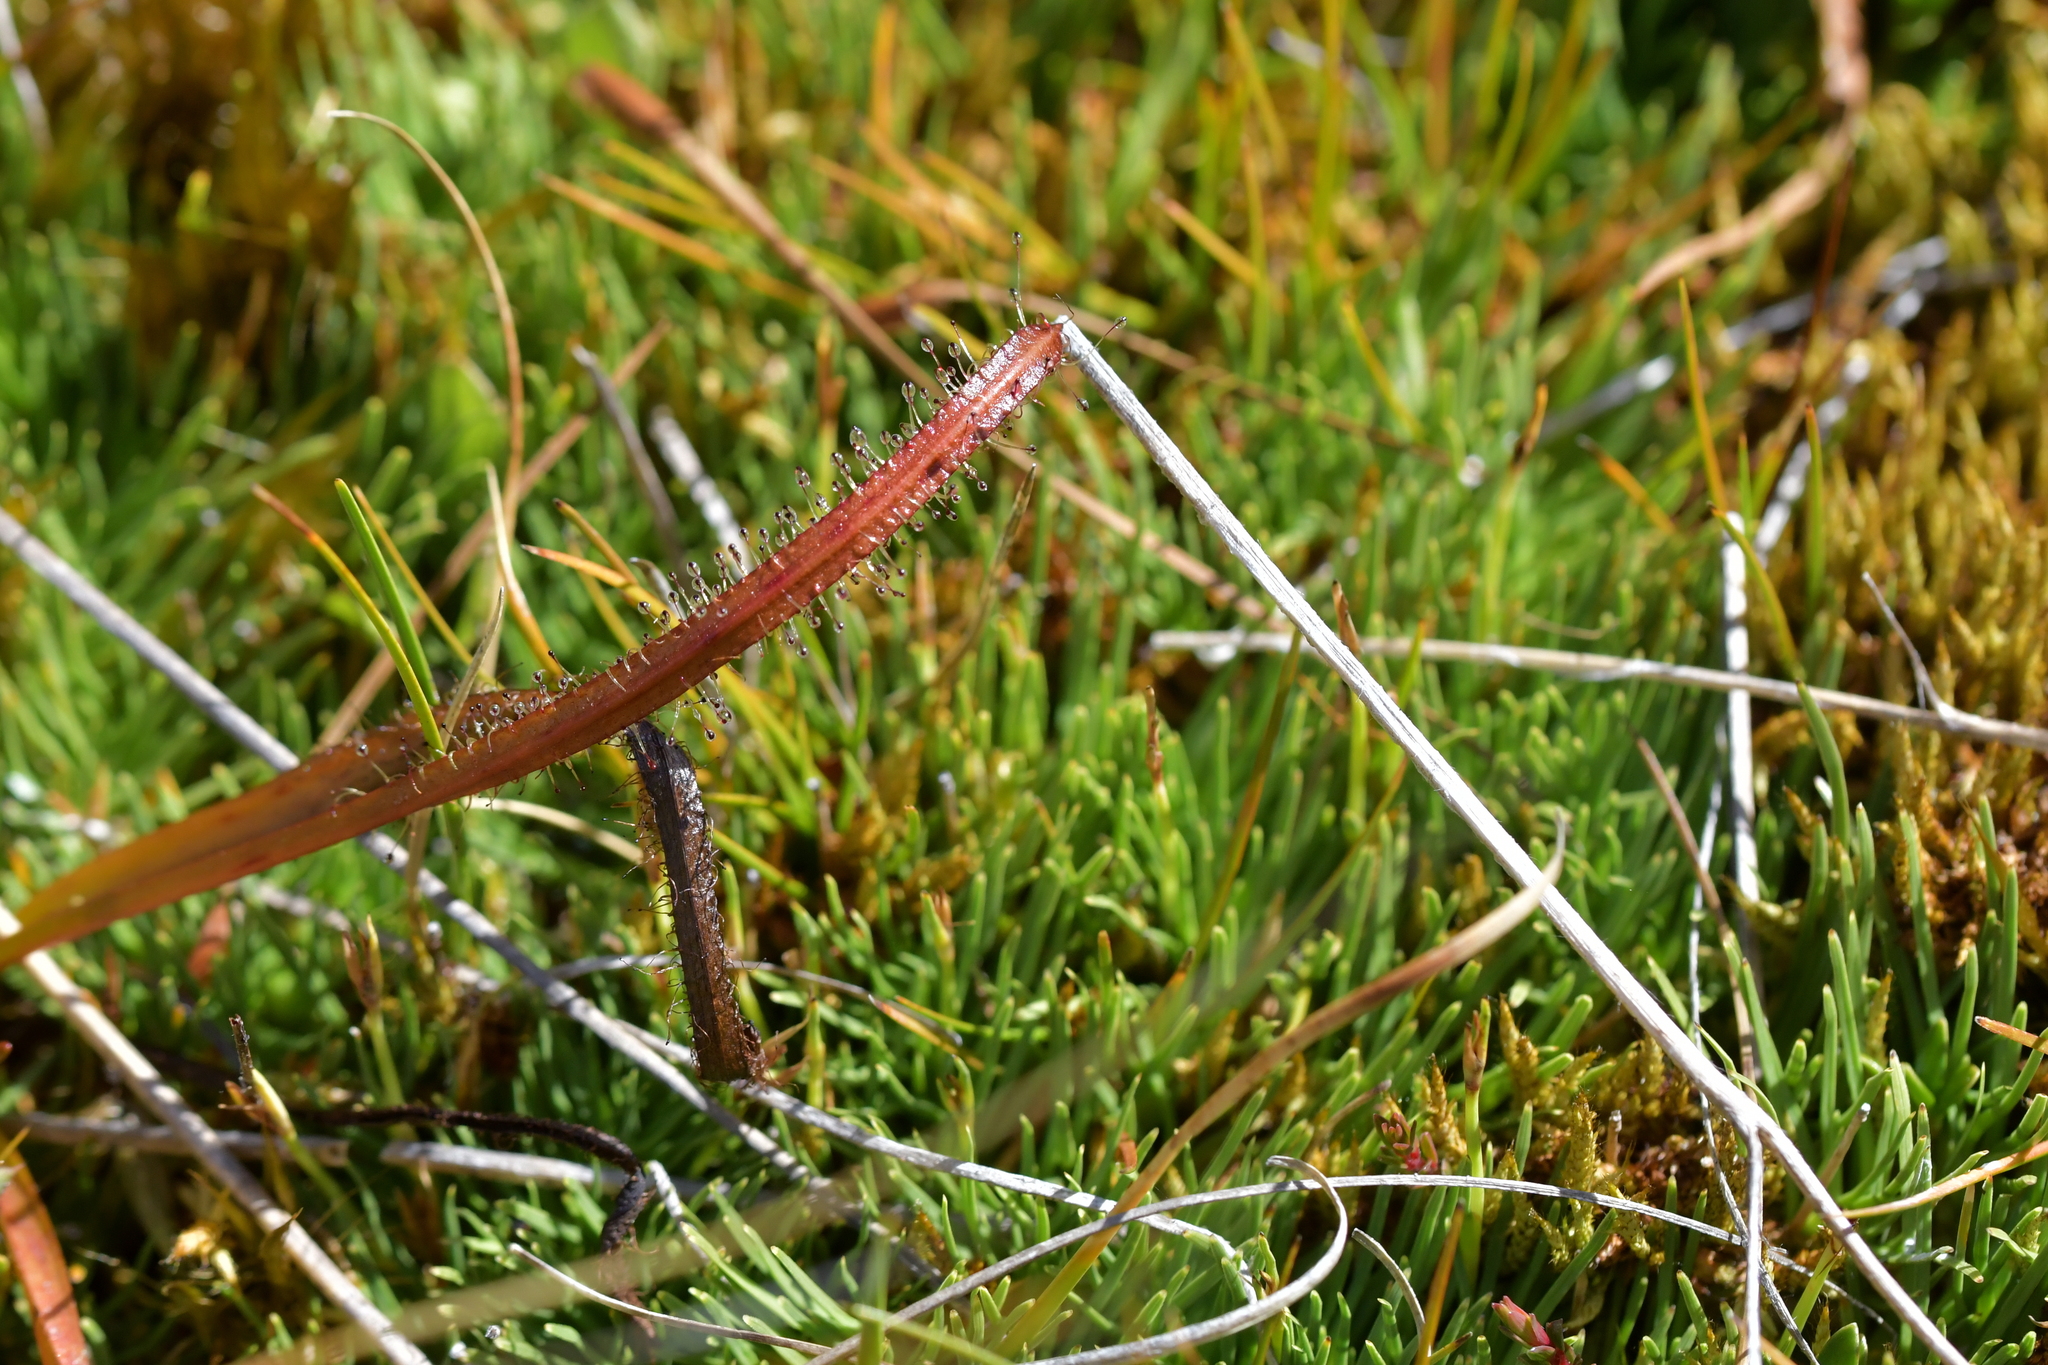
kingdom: Plantae
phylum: Tracheophyta
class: Magnoliopsida
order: Caryophyllales
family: Droseraceae
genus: Drosera
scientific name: Drosera arcturi
